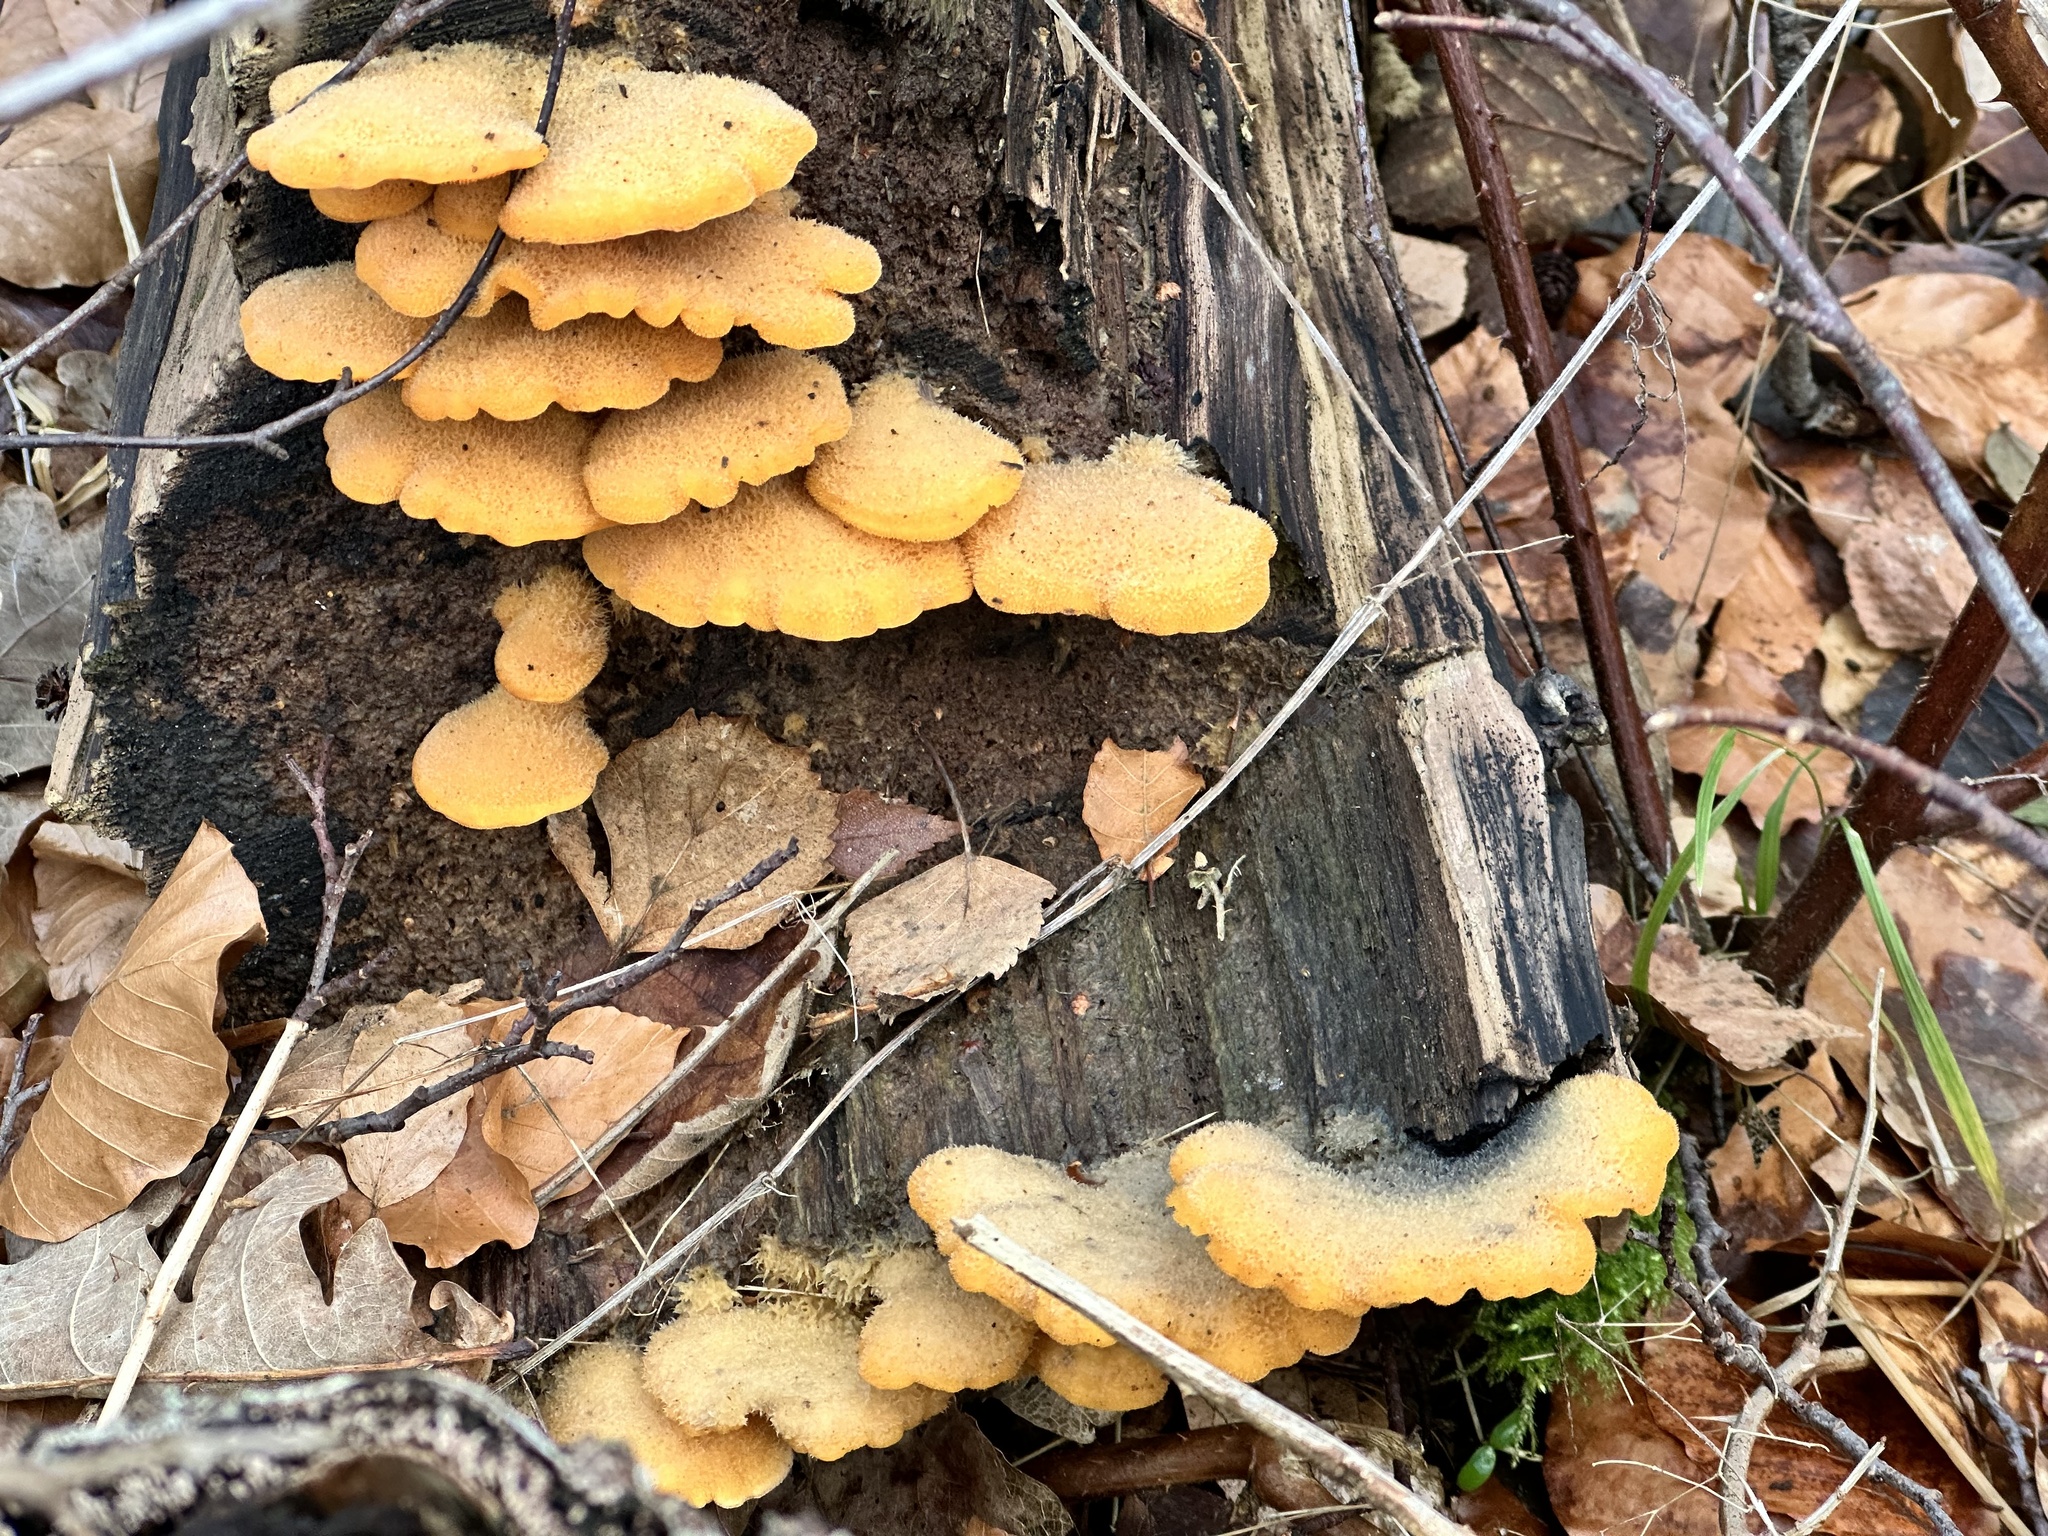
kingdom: Fungi
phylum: Basidiomycota
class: Agaricomycetes
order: Agaricales
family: Phyllotopsidaceae
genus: Phyllotopsis
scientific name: Phyllotopsis nidulans
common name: Orange mock oyster
